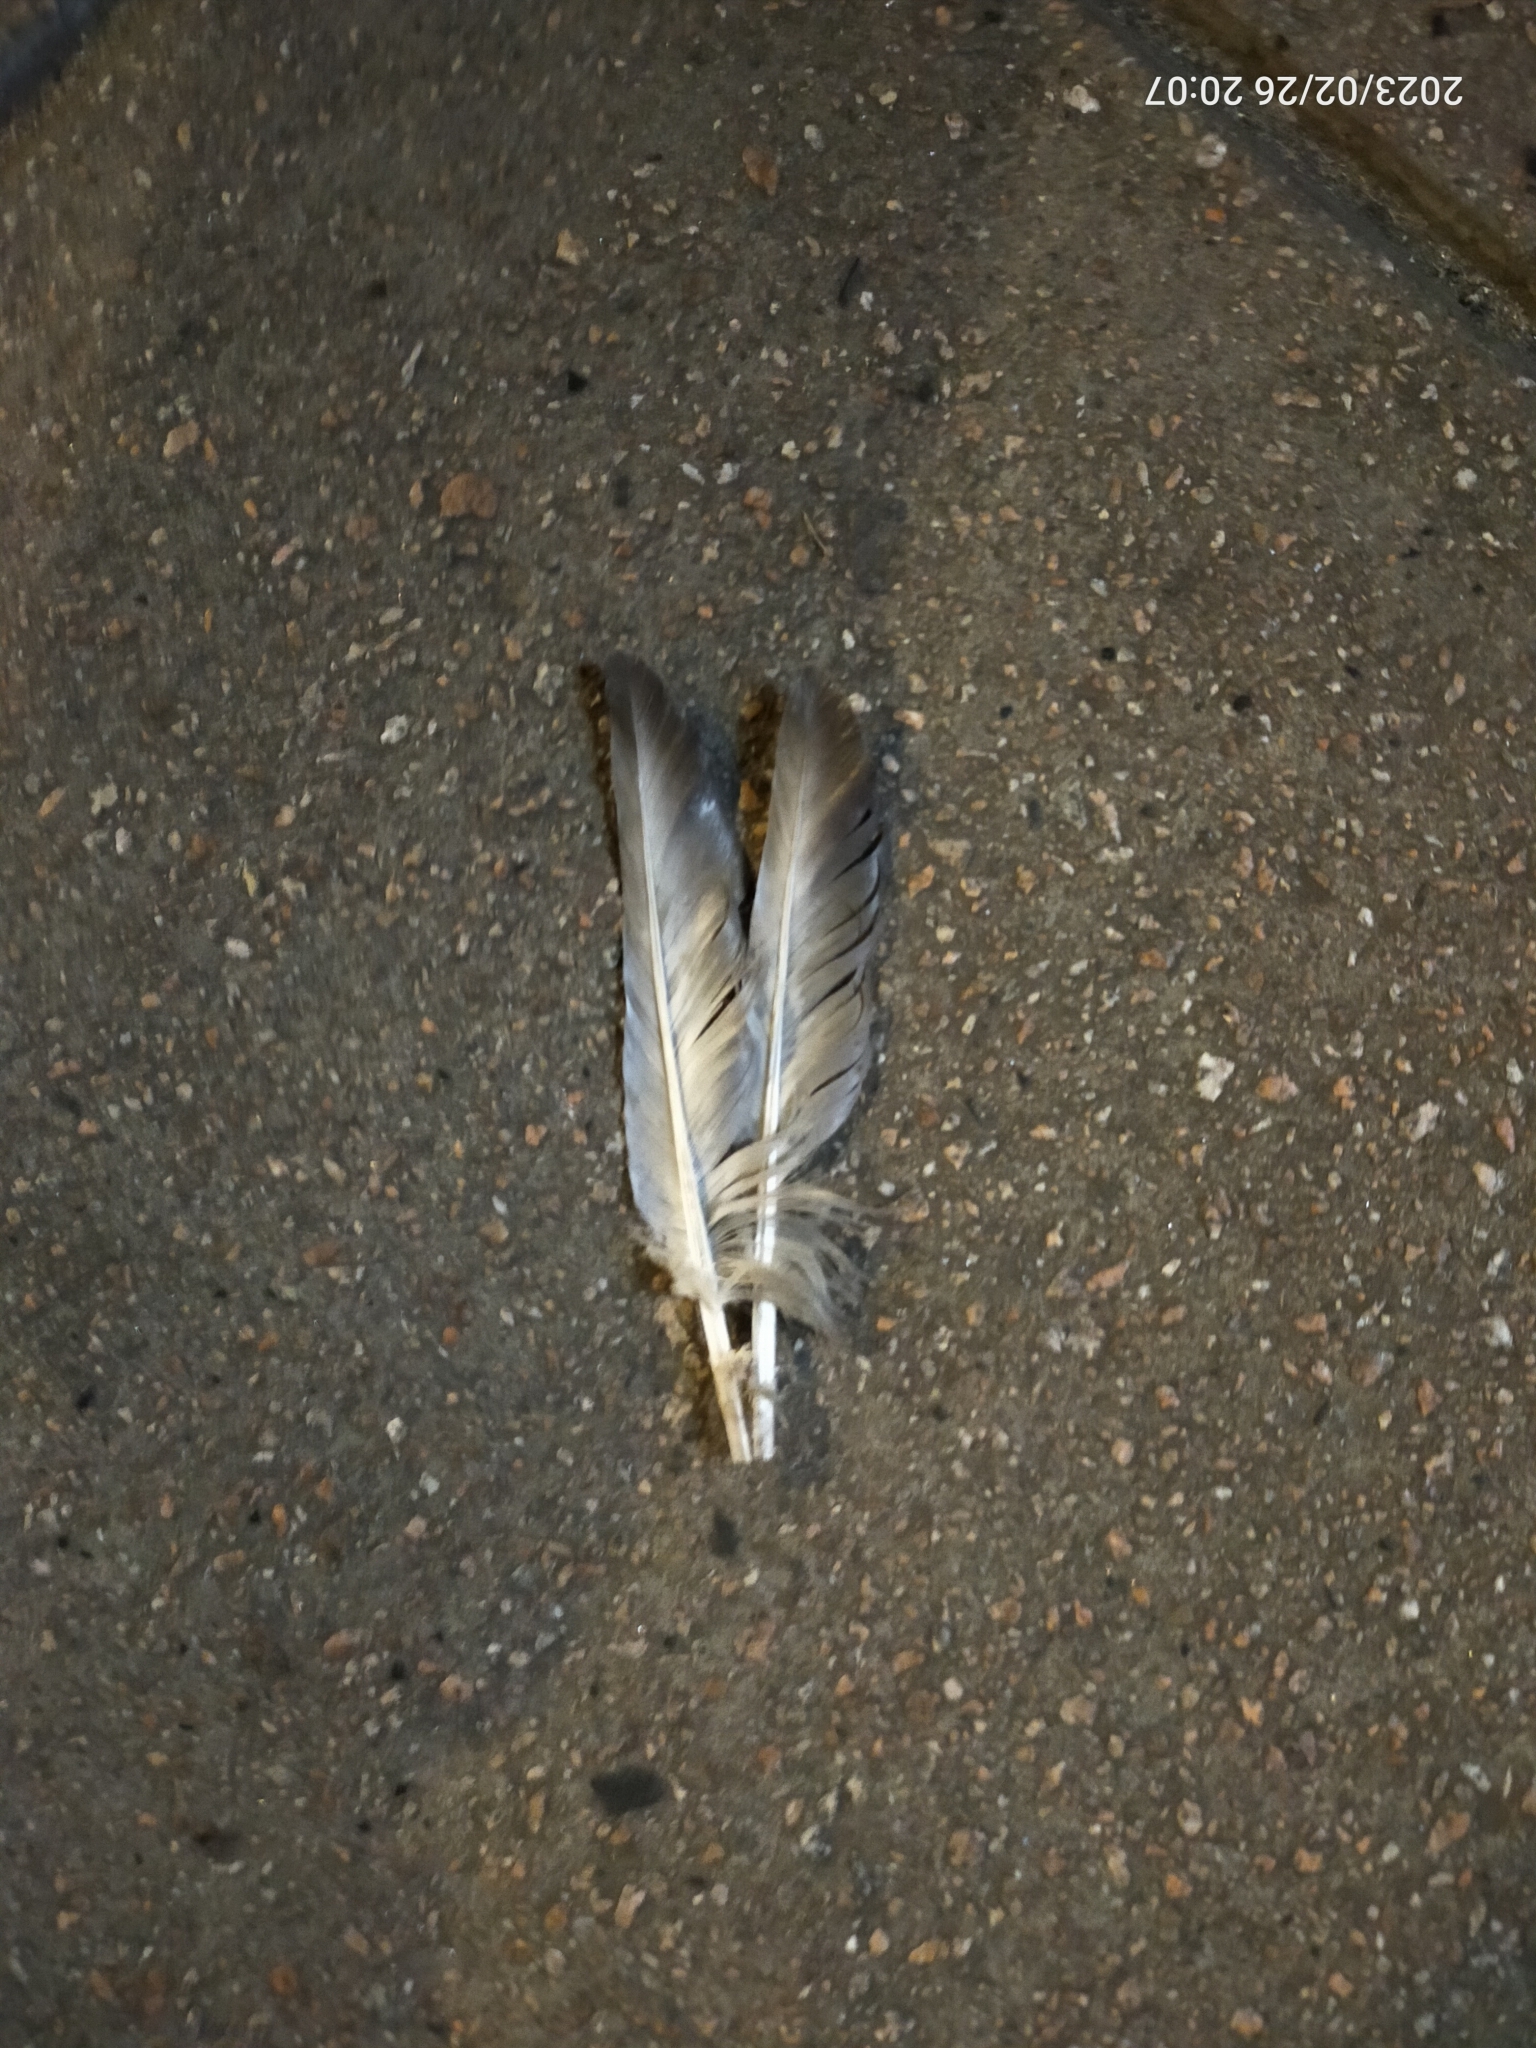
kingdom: Animalia
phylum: Chordata
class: Aves
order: Columbiformes
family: Columbidae
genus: Columba
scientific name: Columba livia
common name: Rock pigeon
